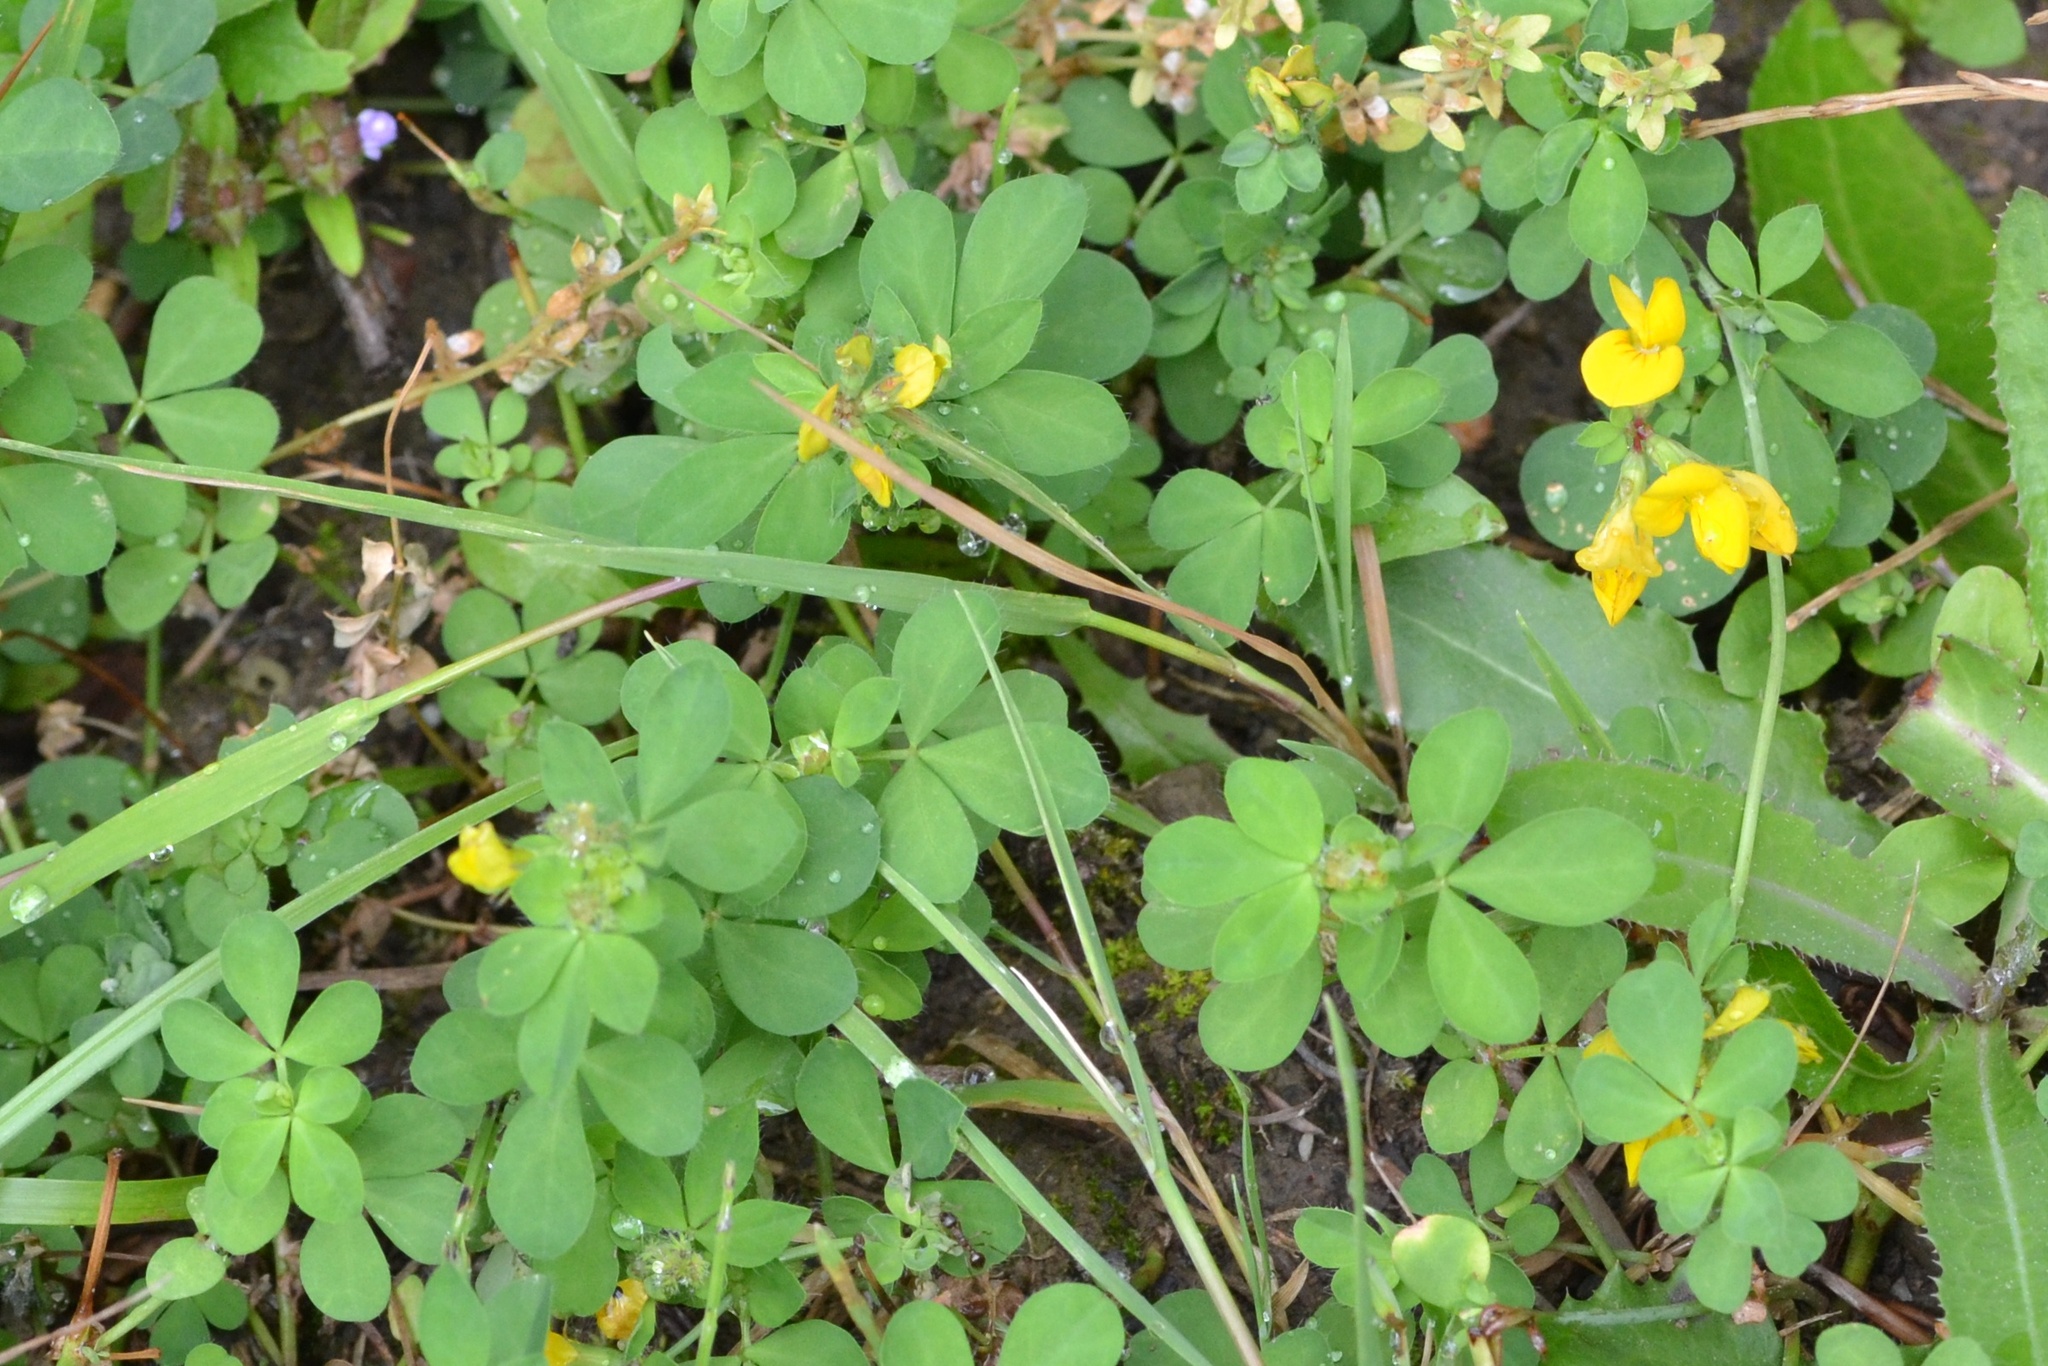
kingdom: Plantae
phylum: Tracheophyta
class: Magnoliopsida
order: Fabales
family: Fabaceae
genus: Lotus
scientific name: Lotus pedunculatus
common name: Greater birdsfoot-trefoil
